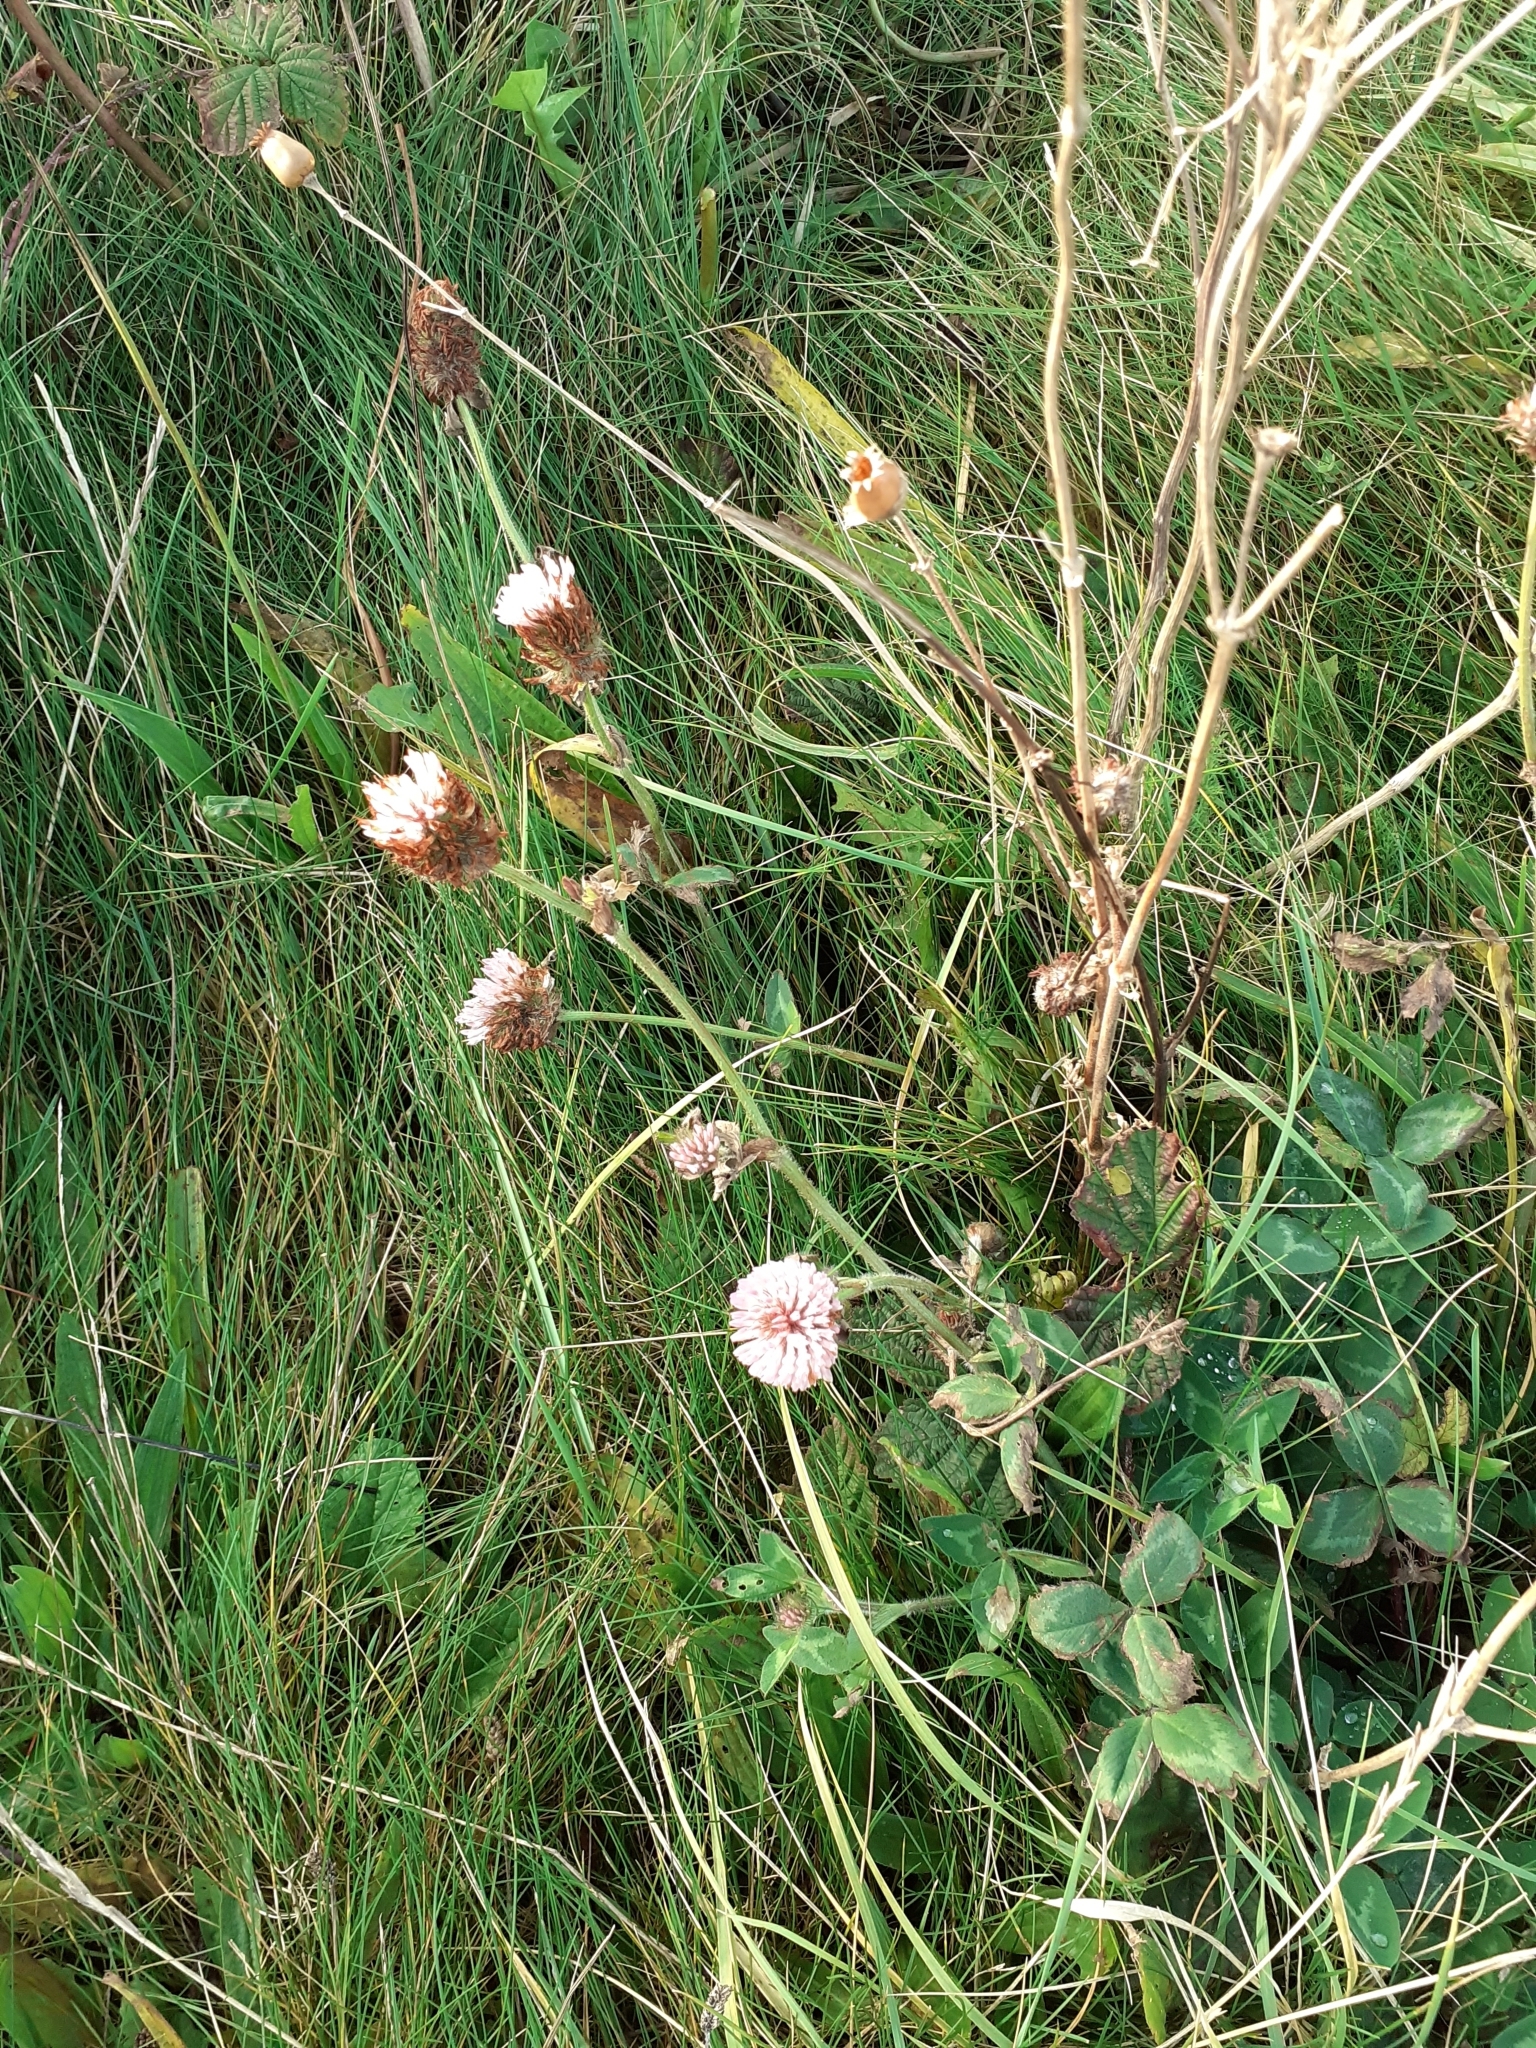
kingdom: Plantae
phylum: Tracheophyta
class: Magnoliopsida
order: Fabales
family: Fabaceae
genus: Trifolium
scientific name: Trifolium pratense
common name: Red clover
